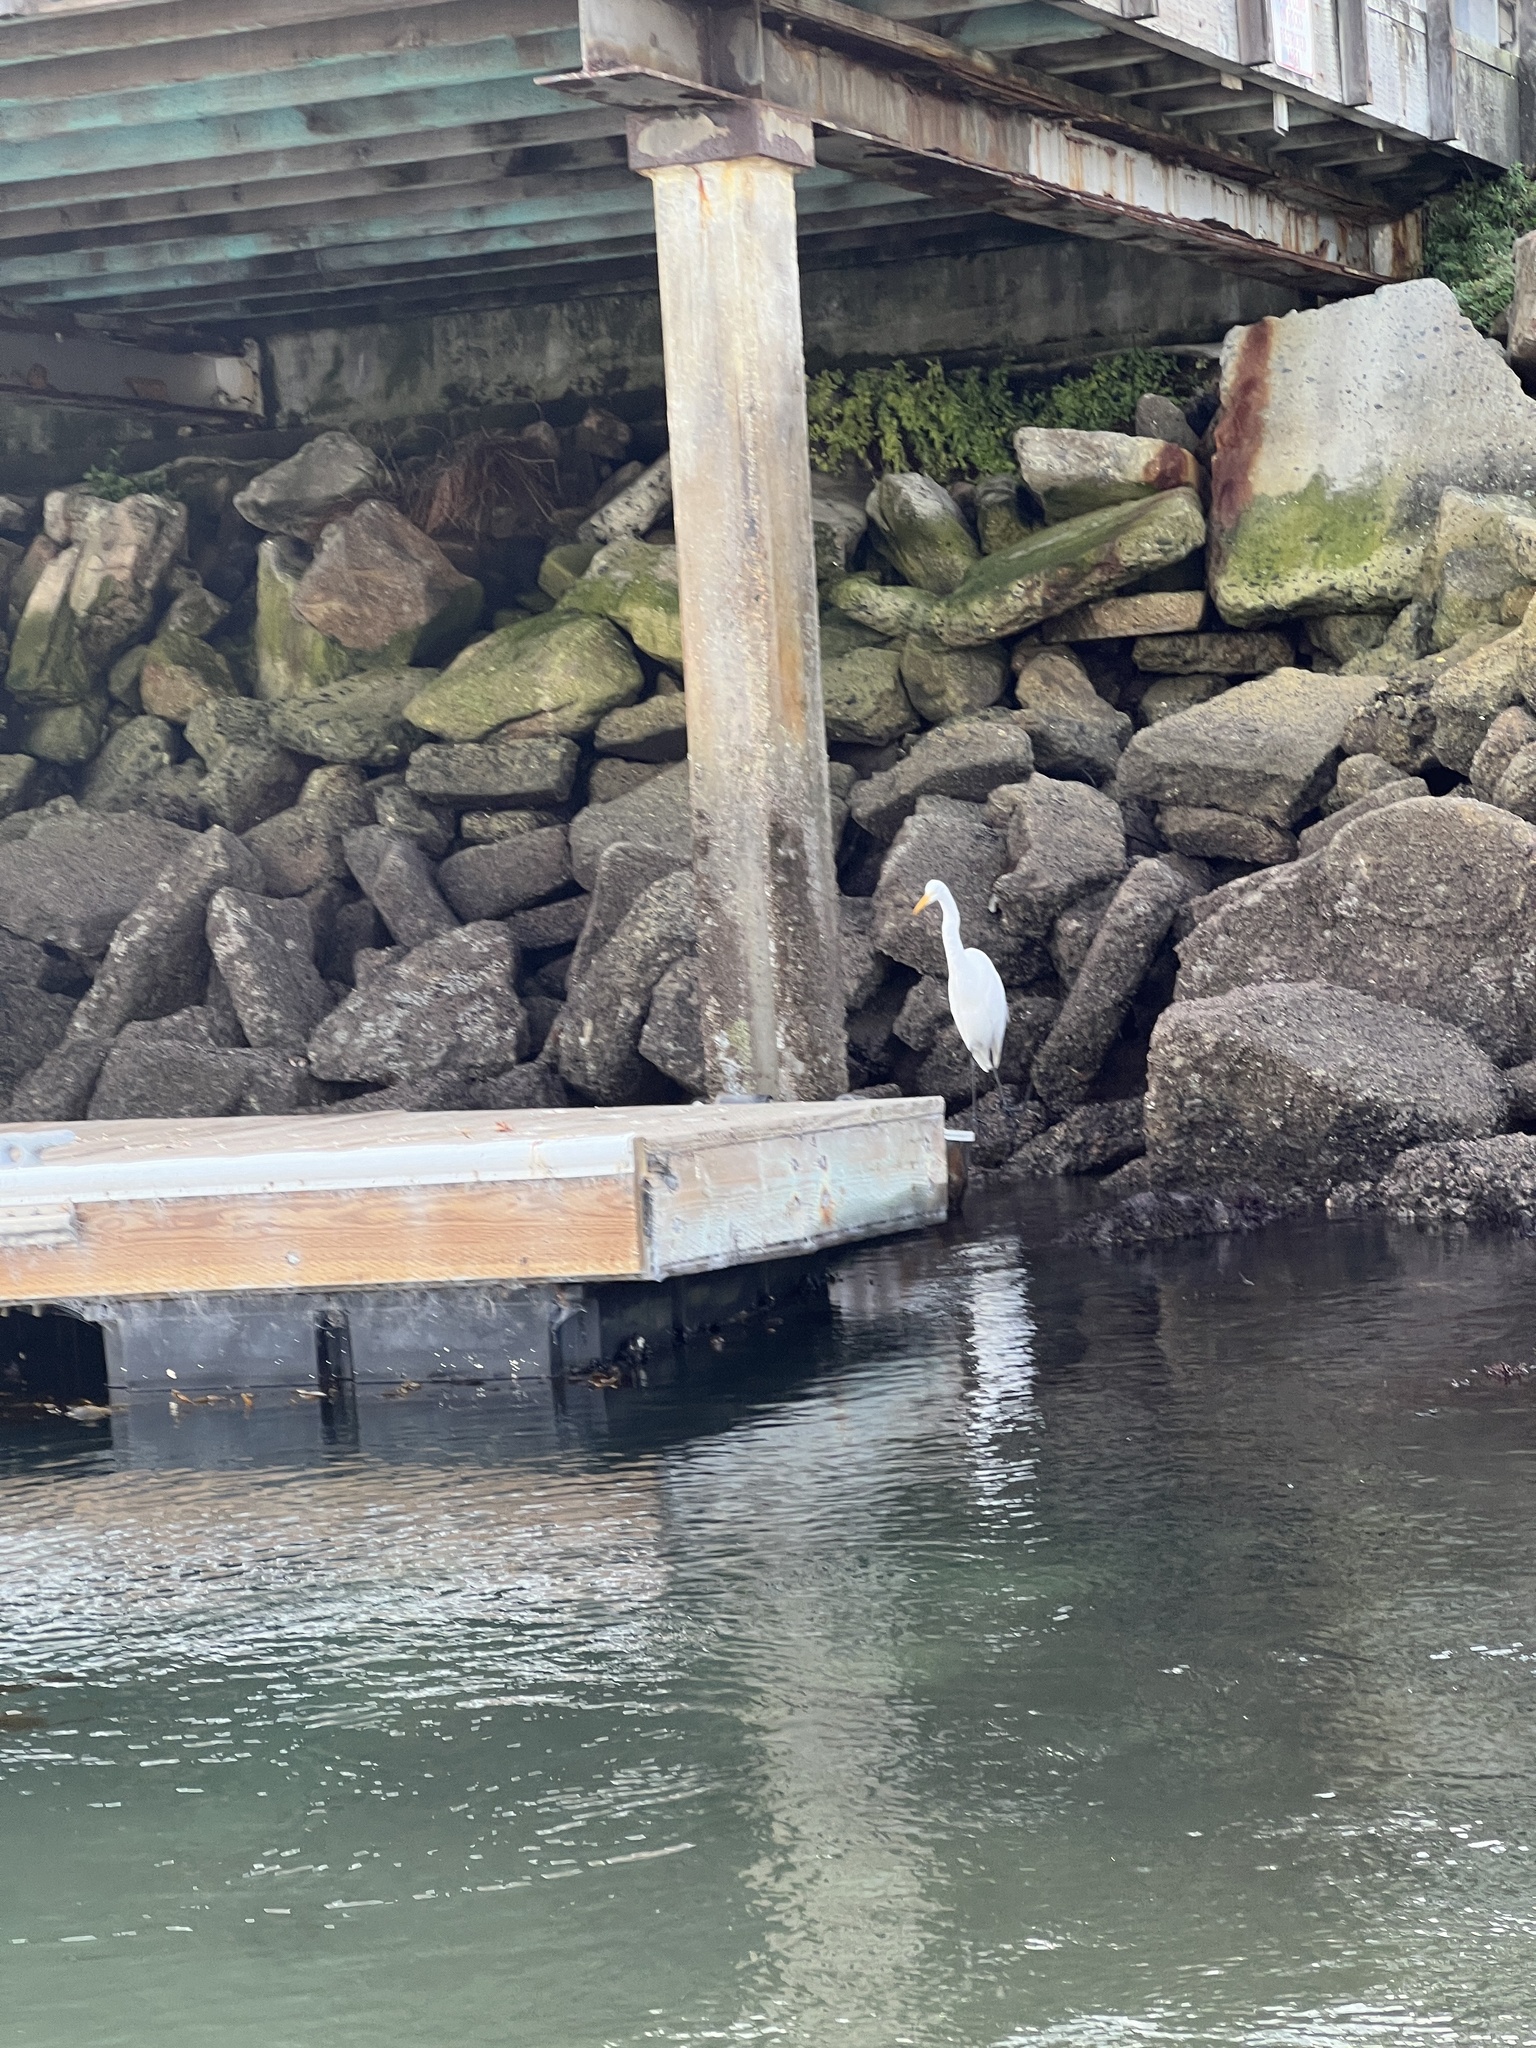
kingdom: Animalia
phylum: Chordata
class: Aves
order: Pelecaniformes
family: Ardeidae
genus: Ardea
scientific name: Ardea alba
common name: Great egret
